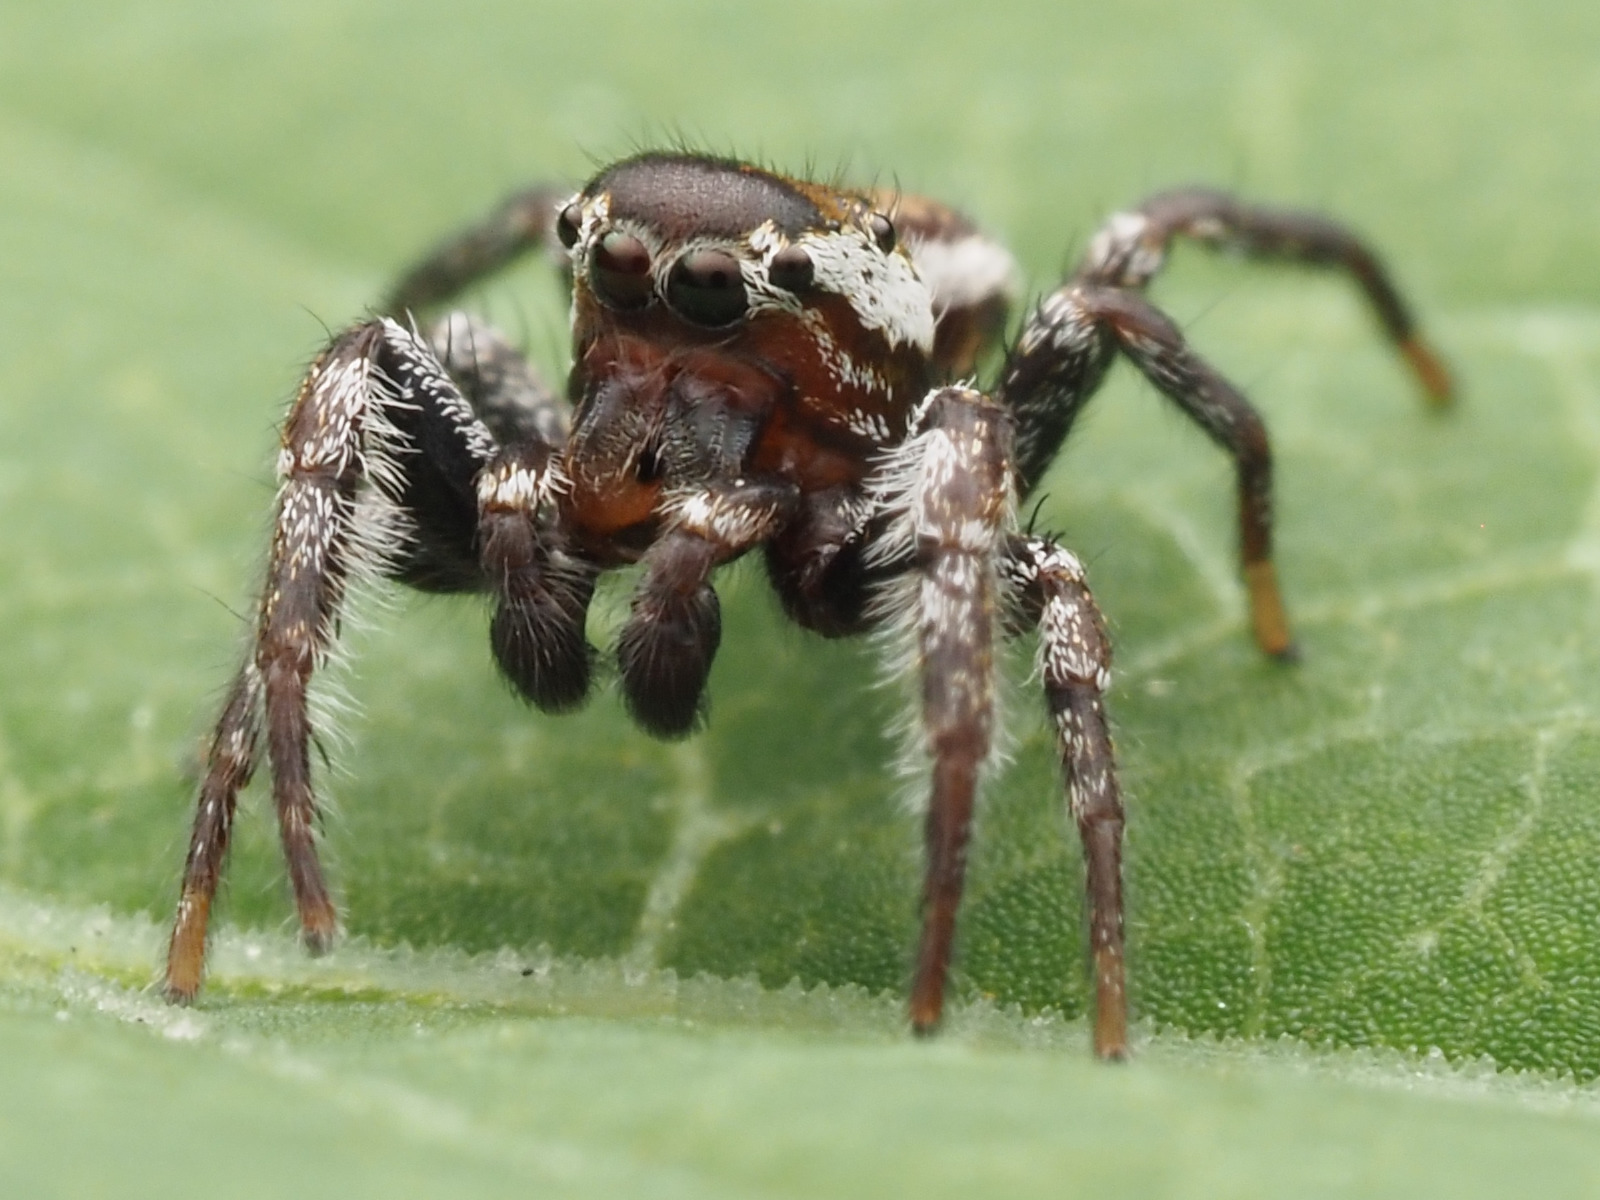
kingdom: Animalia
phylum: Arthropoda
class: Arachnida
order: Araneae
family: Salticidae
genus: Pelegrina
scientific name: Pelegrina exigua
